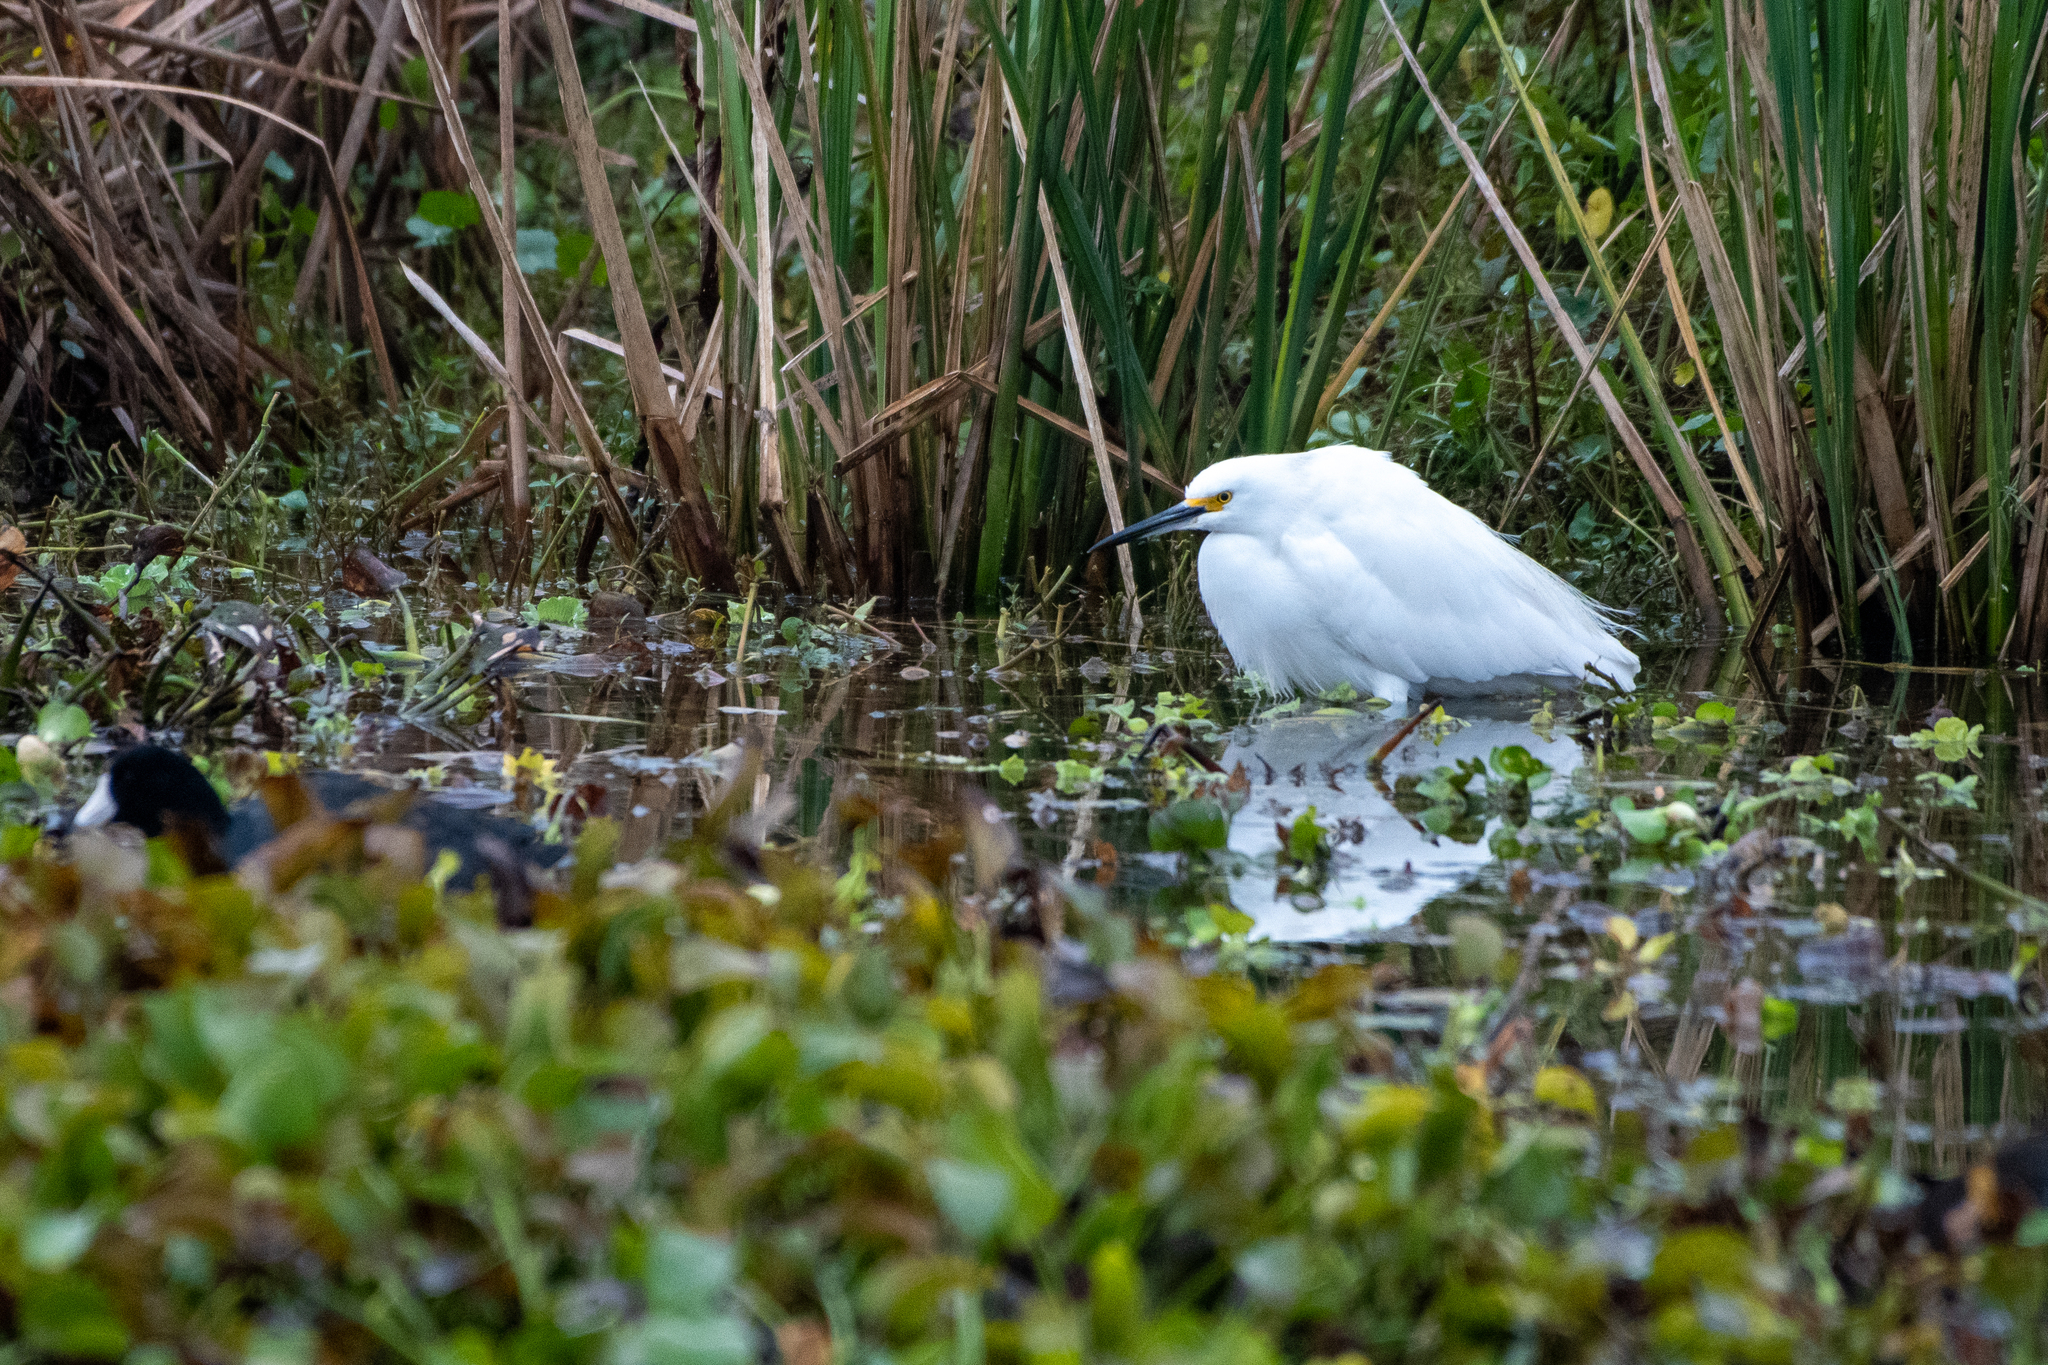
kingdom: Animalia
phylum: Chordata
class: Aves
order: Pelecaniformes
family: Ardeidae
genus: Egretta
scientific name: Egretta thula
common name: Snowy egret
